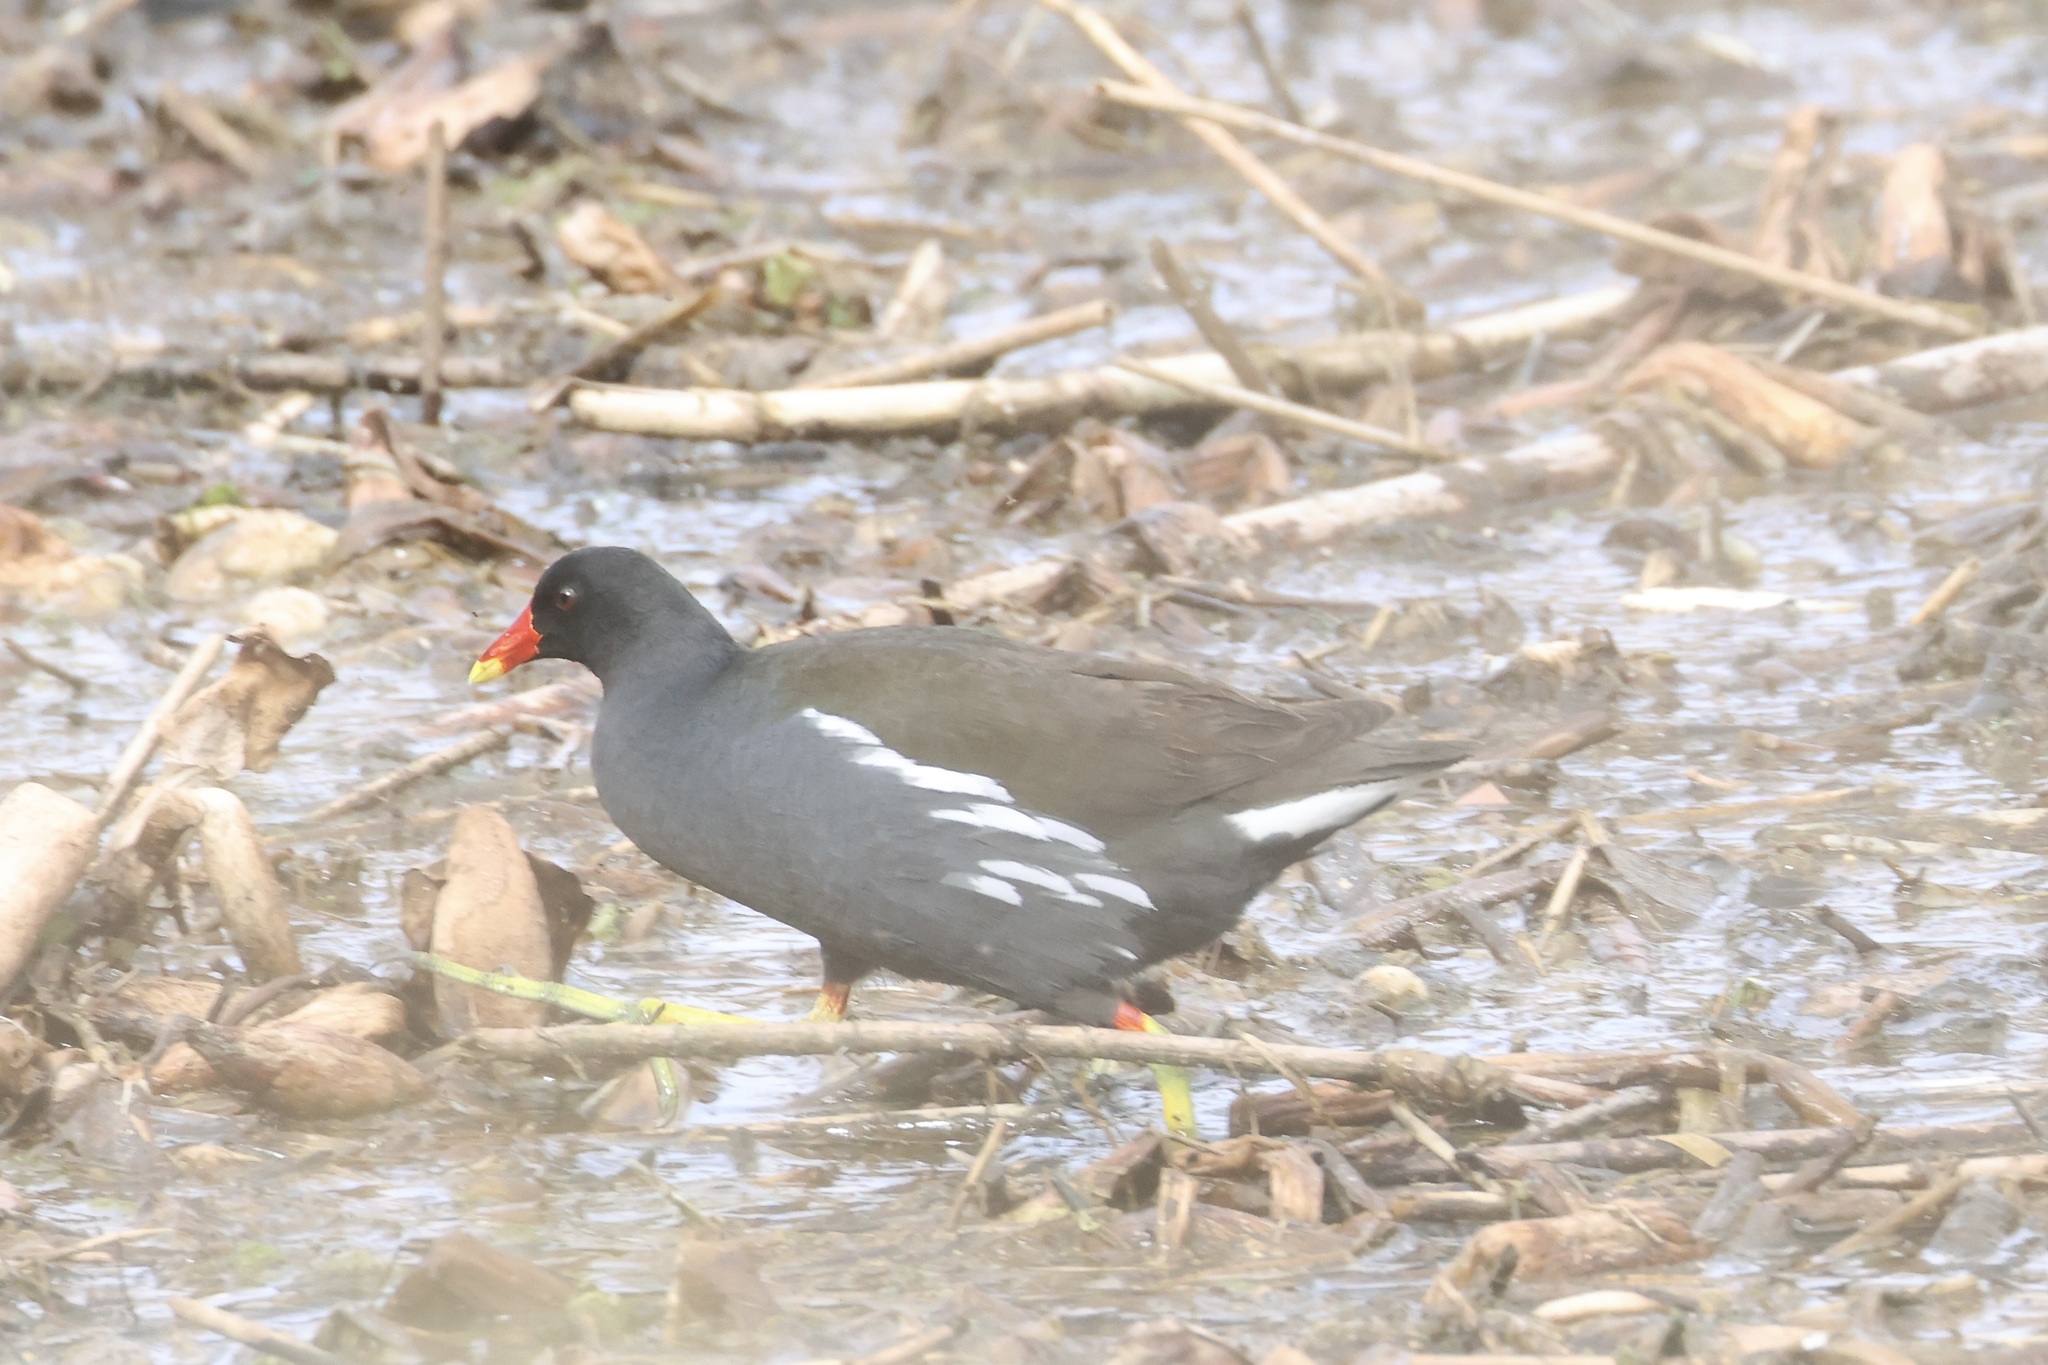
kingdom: Animalia
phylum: Chordata
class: Aves
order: Gruiformes
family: Rallidae
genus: Gallinula
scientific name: Gallinula chloropus
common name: Common moorhen
